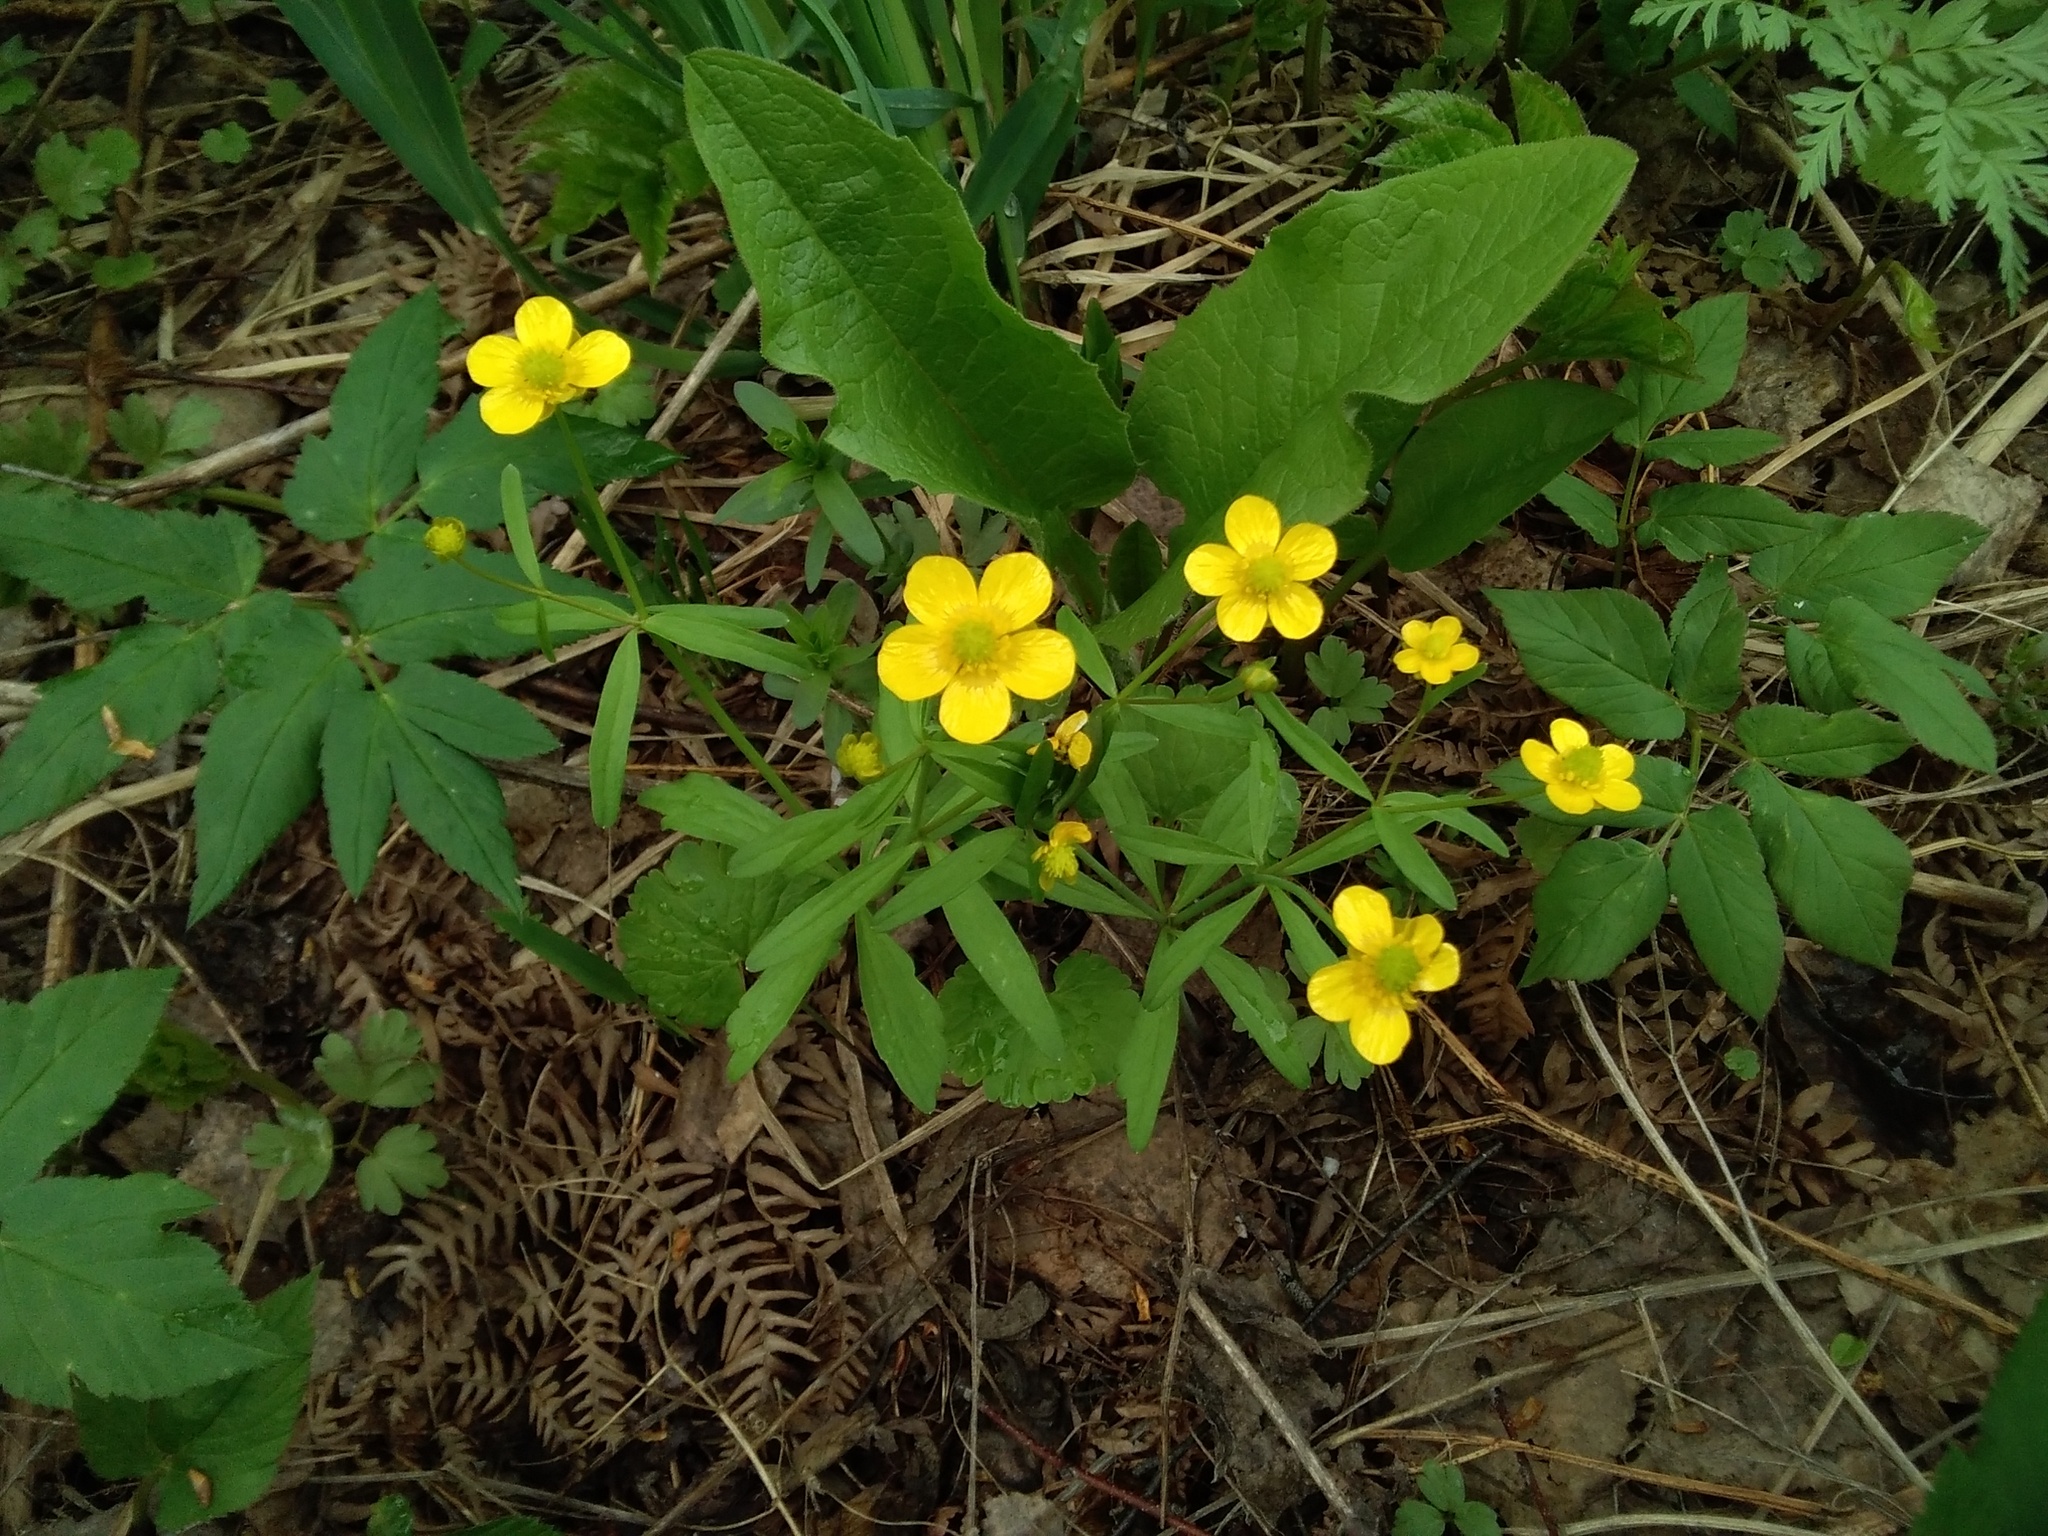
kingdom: Plantae
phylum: Tracheophyta
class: Magnoliopsida
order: Ranunculales
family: Ranunculaceae
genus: Ranunculus
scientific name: Ranunculus monophyllus
